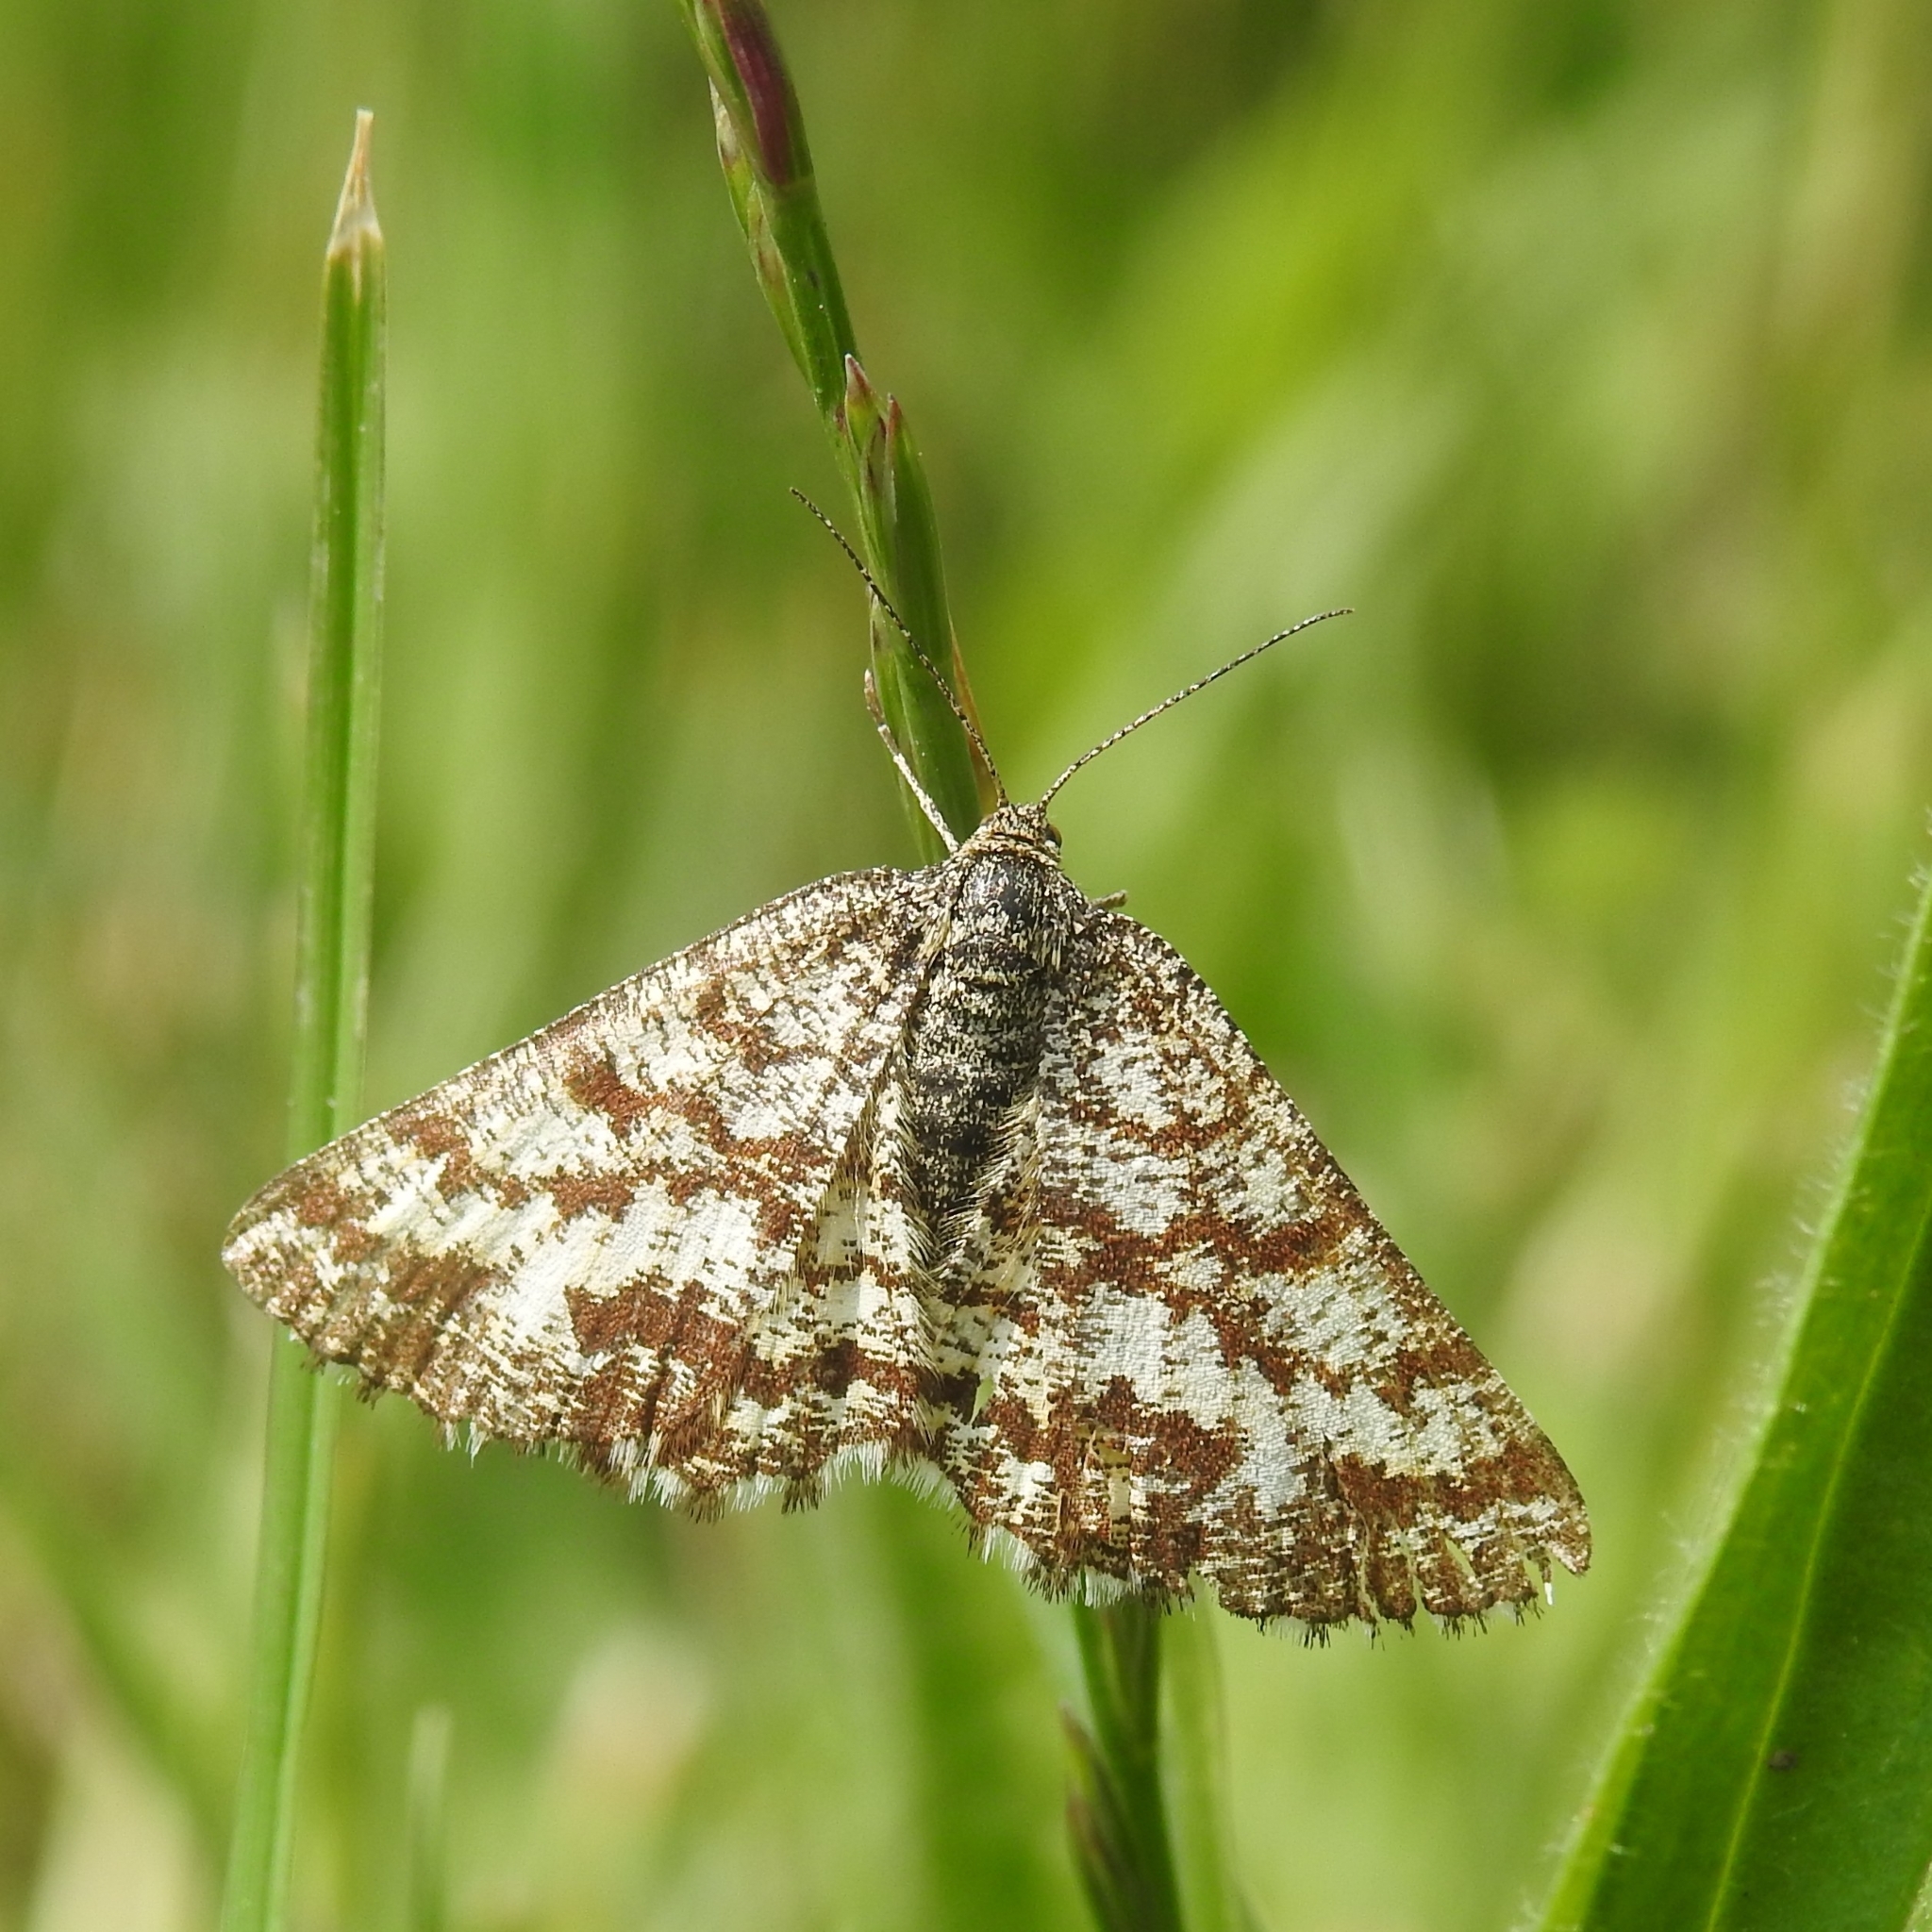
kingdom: Animalia
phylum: Arthropoda
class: Insecta
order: Lepidoptera
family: Geometridae
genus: Ematurga
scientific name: Ematurga atomaria
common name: Common heath
